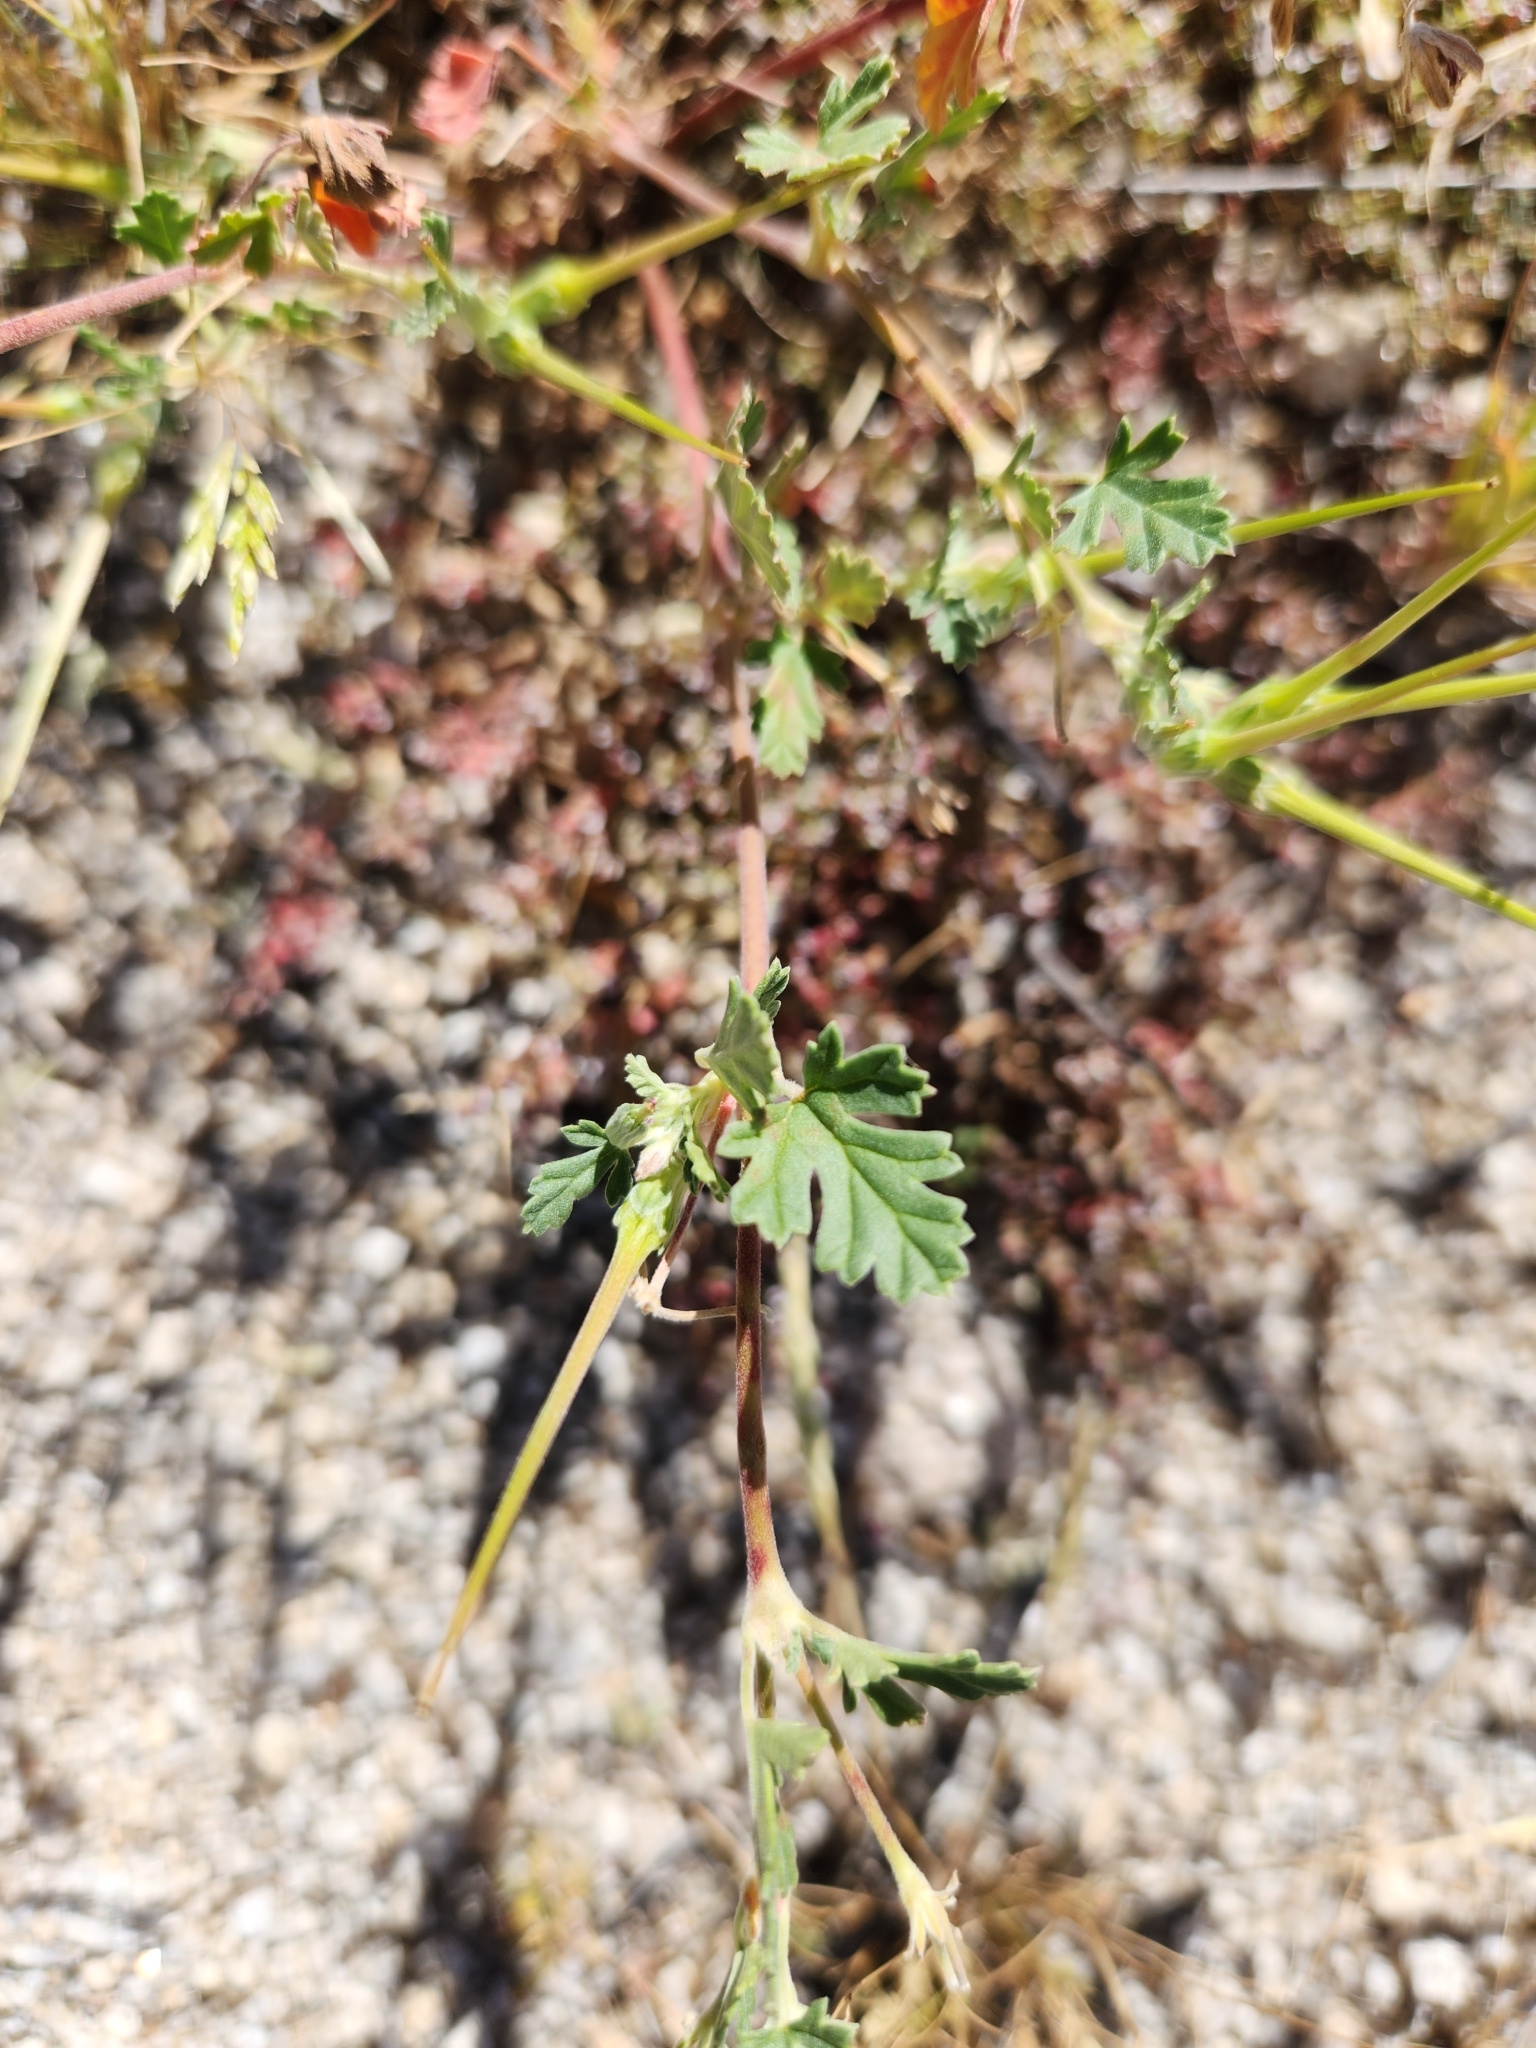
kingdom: Plantae
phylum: Tracheophyta
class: Magnoliopsida
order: Geraniales
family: Geraniaceae
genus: Erodium
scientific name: Erodium texanum
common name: Texas stork's-bill
